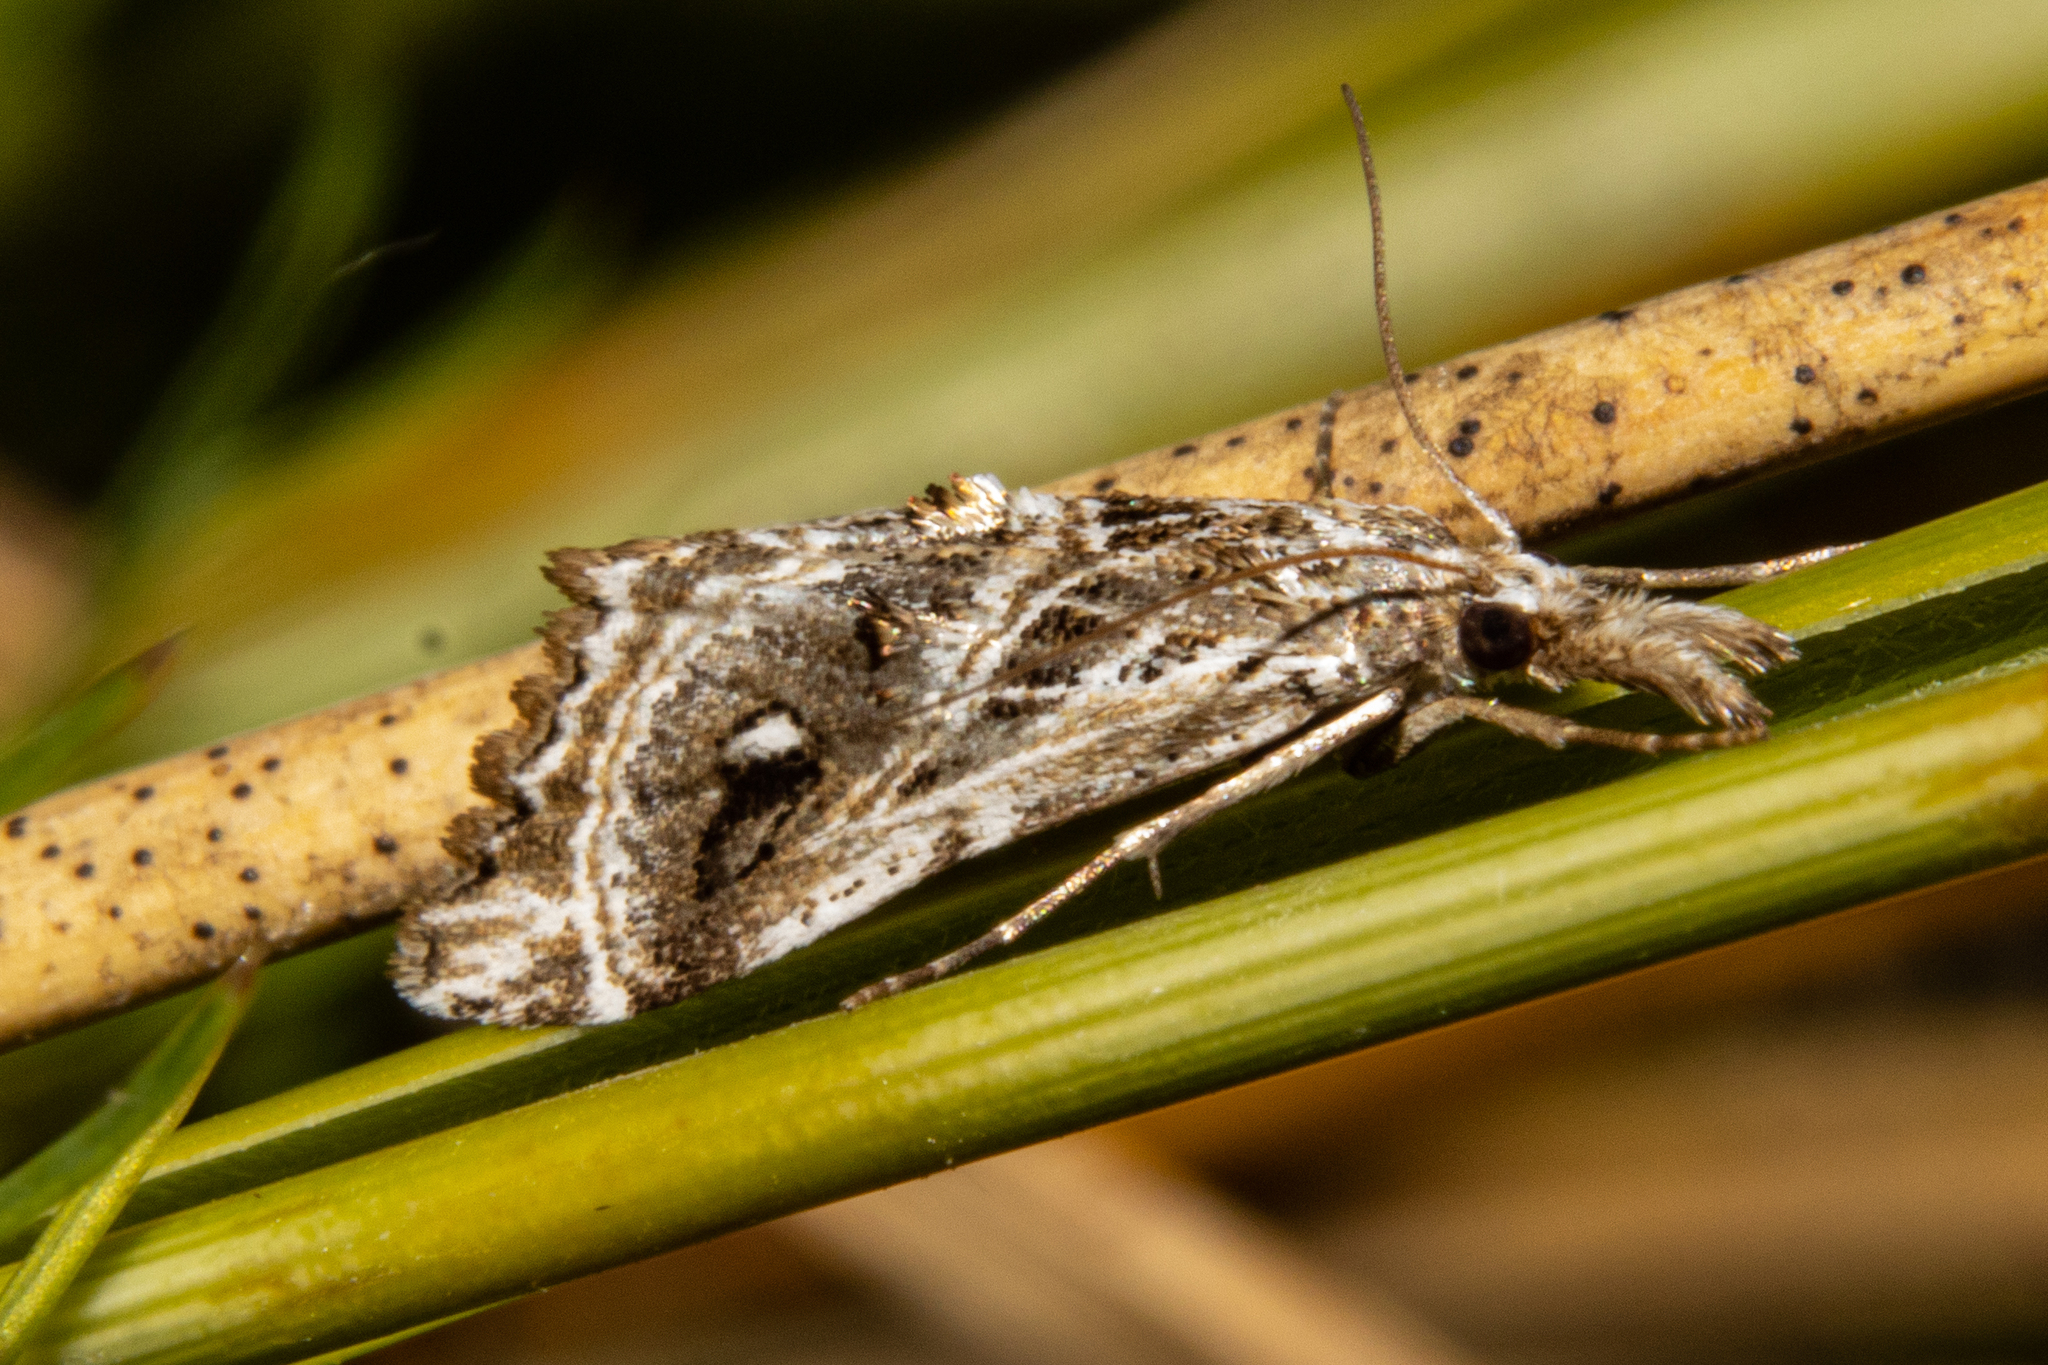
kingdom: Animalia
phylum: Arthropoda
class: Insecta
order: Lepidoptera
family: Crambidae
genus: Gadira
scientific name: Gadira acerella
